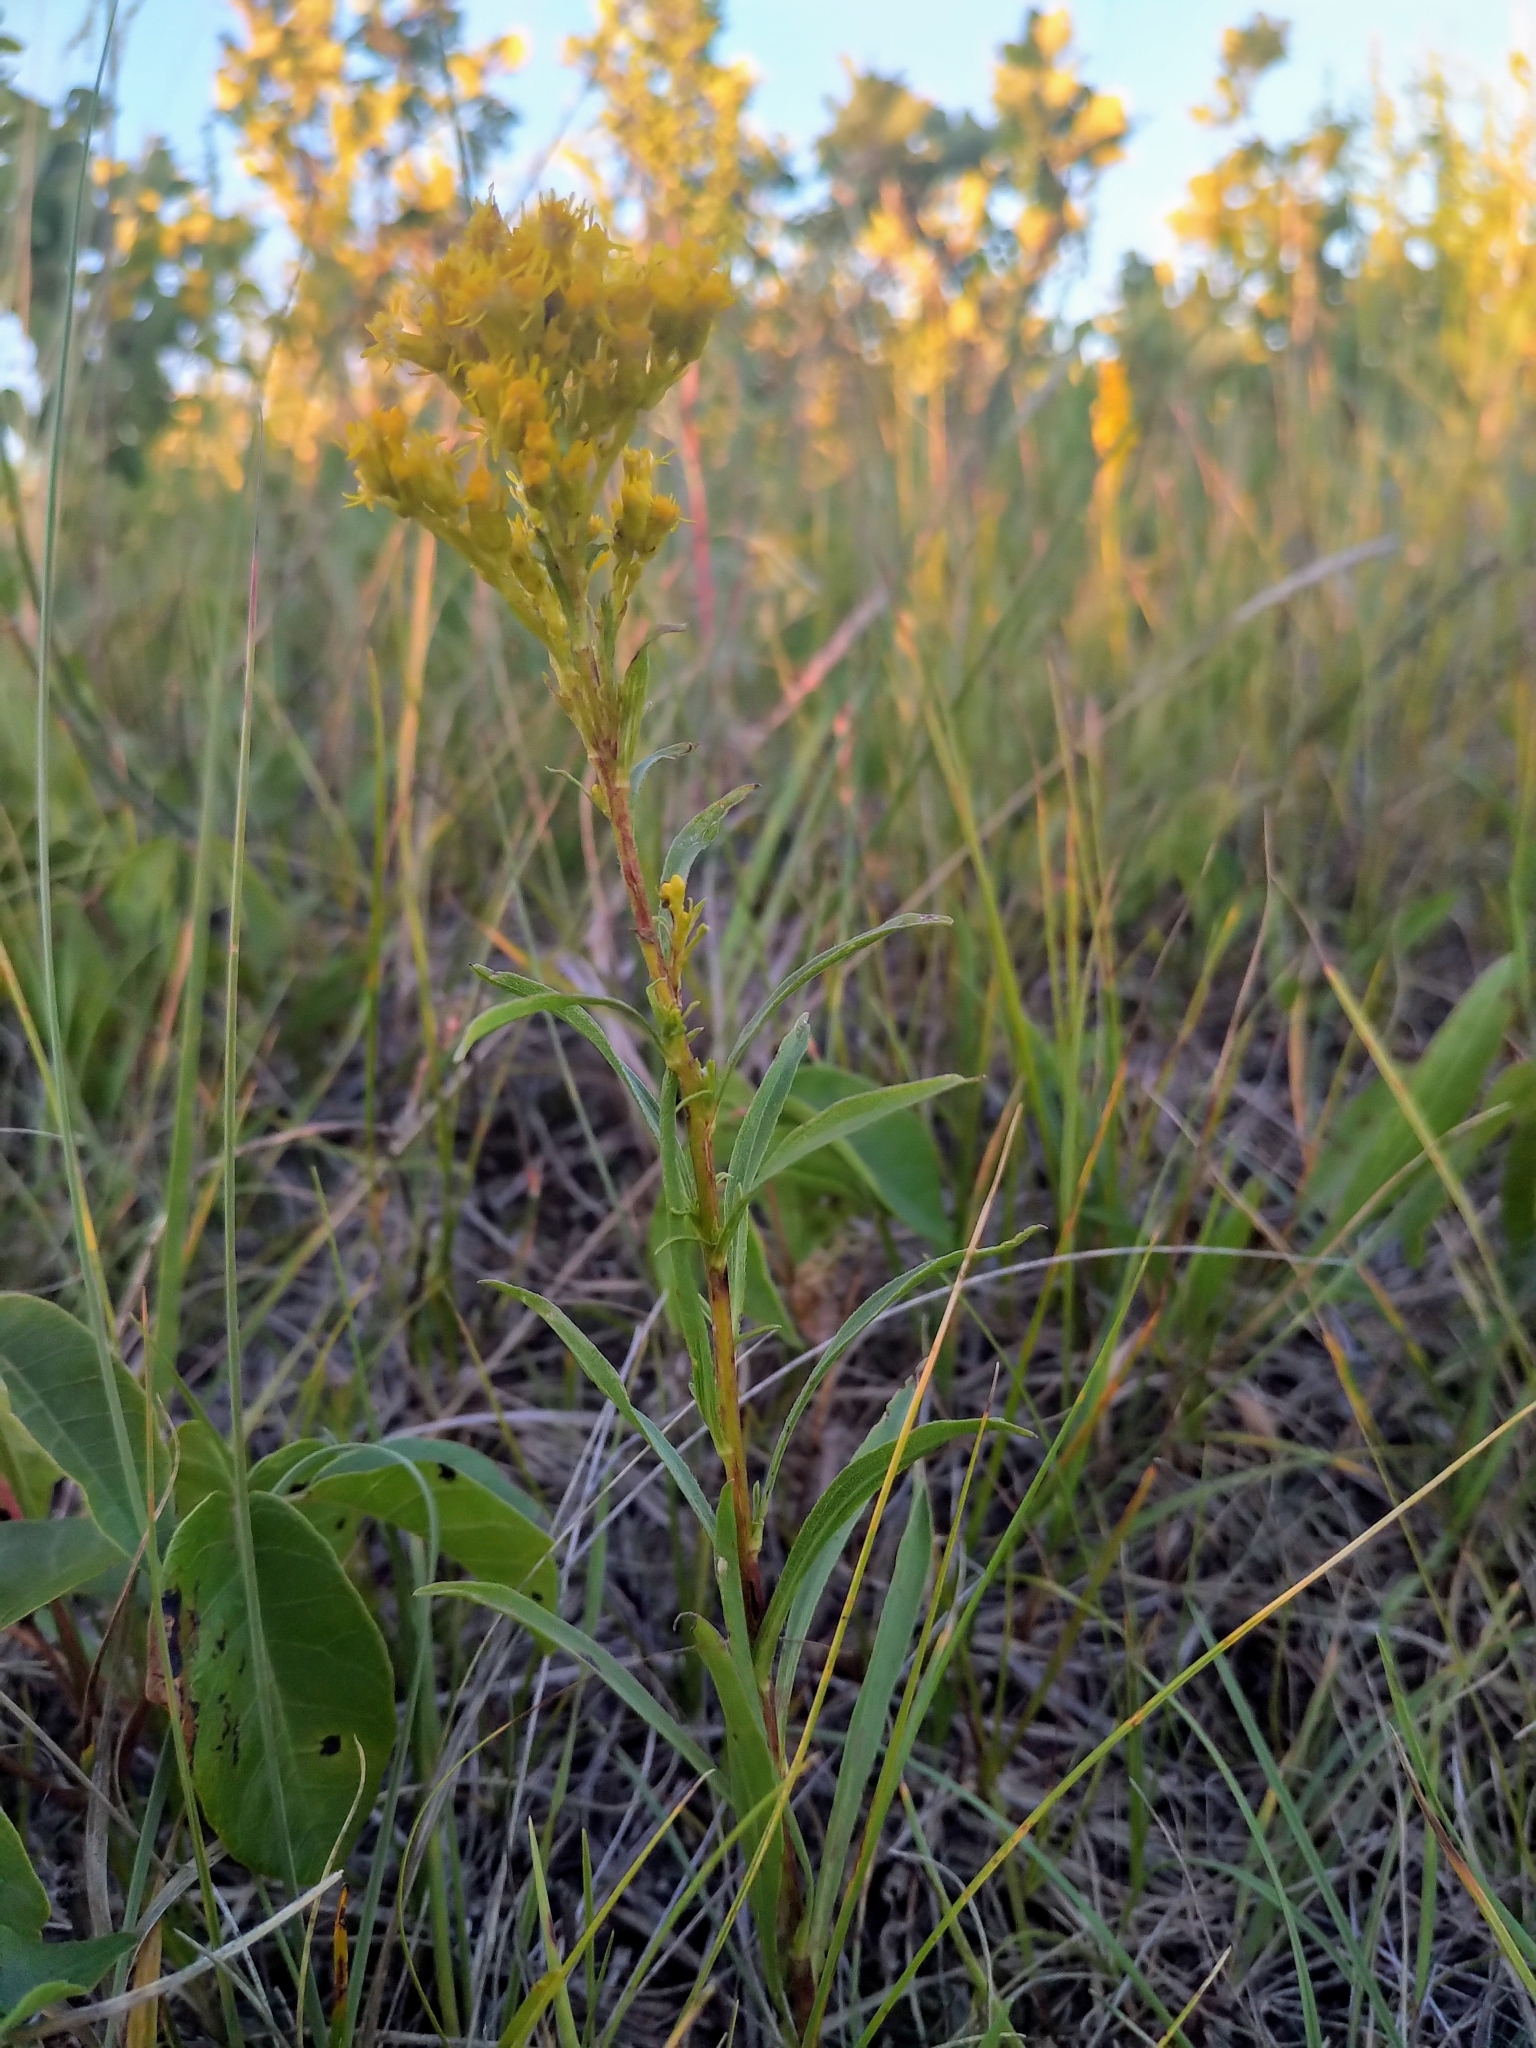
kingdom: Plantae
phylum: Tracheophyta
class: Magnoliopsida
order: Asterales
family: Asteraceae
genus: Solidago
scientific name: Solidago missouriensis
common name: Prairie goldenrod
